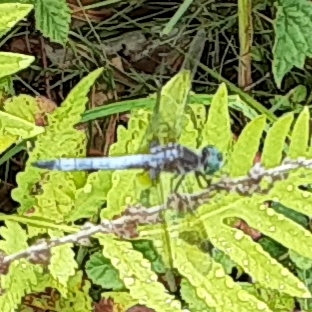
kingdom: Animalia
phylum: Arthropoda
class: Insecta
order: Odonata
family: Libellulidae
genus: Pachydiplax
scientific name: Pachydiplax longipennis
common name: Blue dasher
